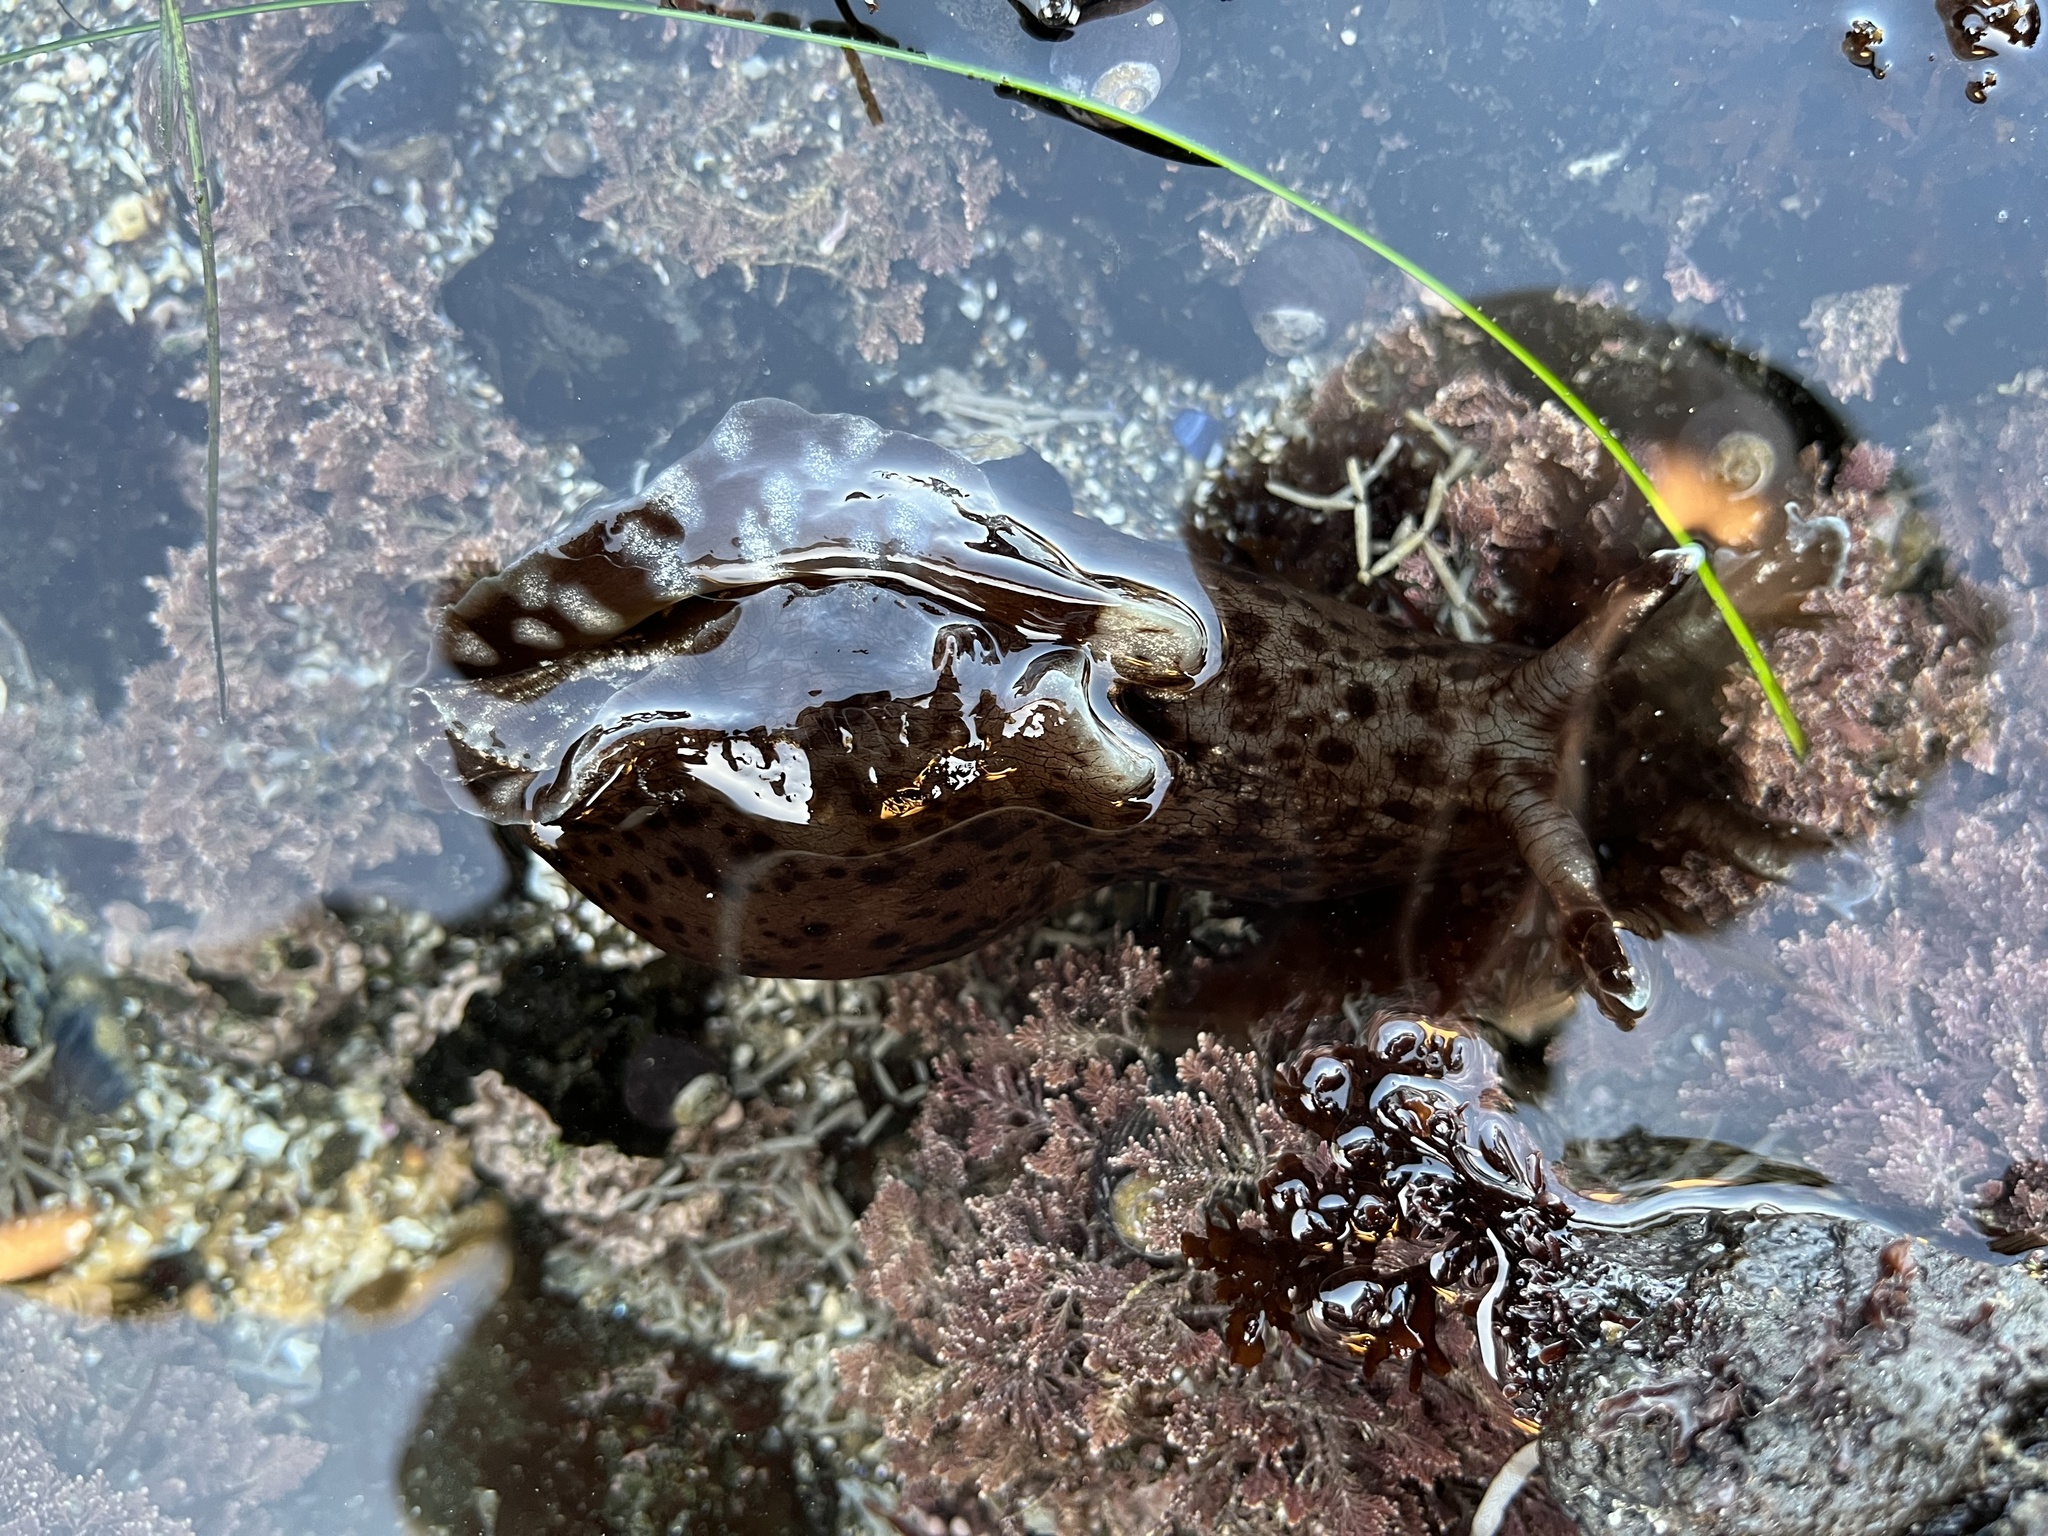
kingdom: Animalia
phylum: Mollusca
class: Gastropoda
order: Aplysiida
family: Aplysiidae
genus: Aplysia
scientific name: Aplysia californica
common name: California seahare
